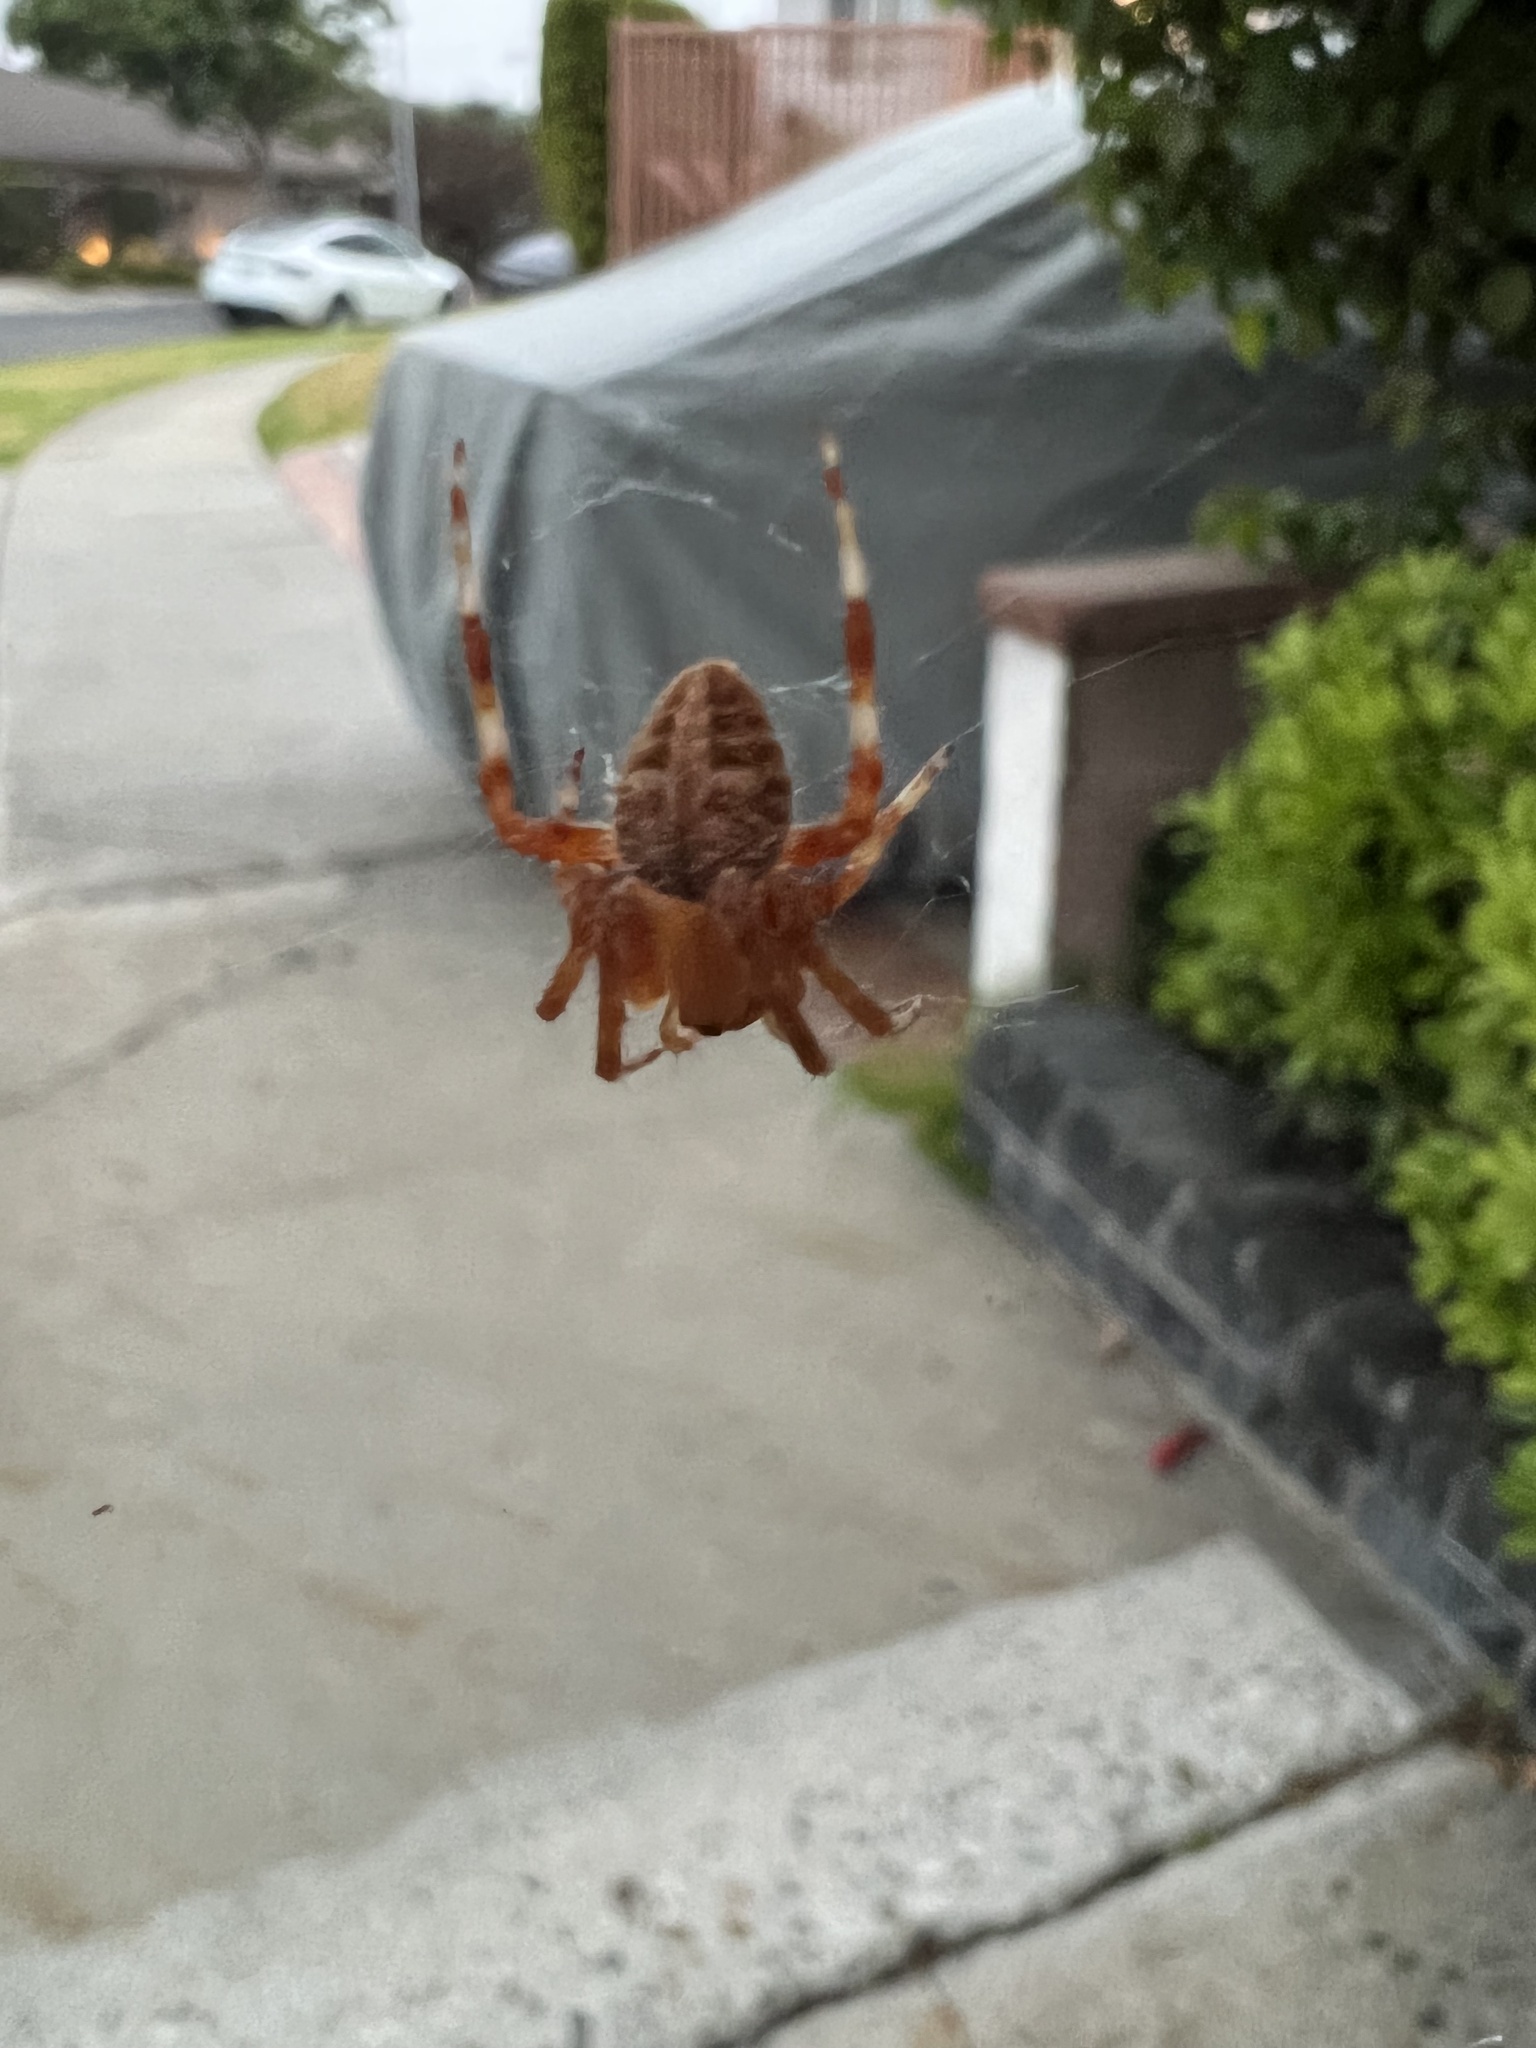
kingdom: Animalia
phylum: Arthropoda
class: Arachnida
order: Araneae
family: Araneidae
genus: Neoscona
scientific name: Neoscona crucifera
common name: Spotted orbweaver
